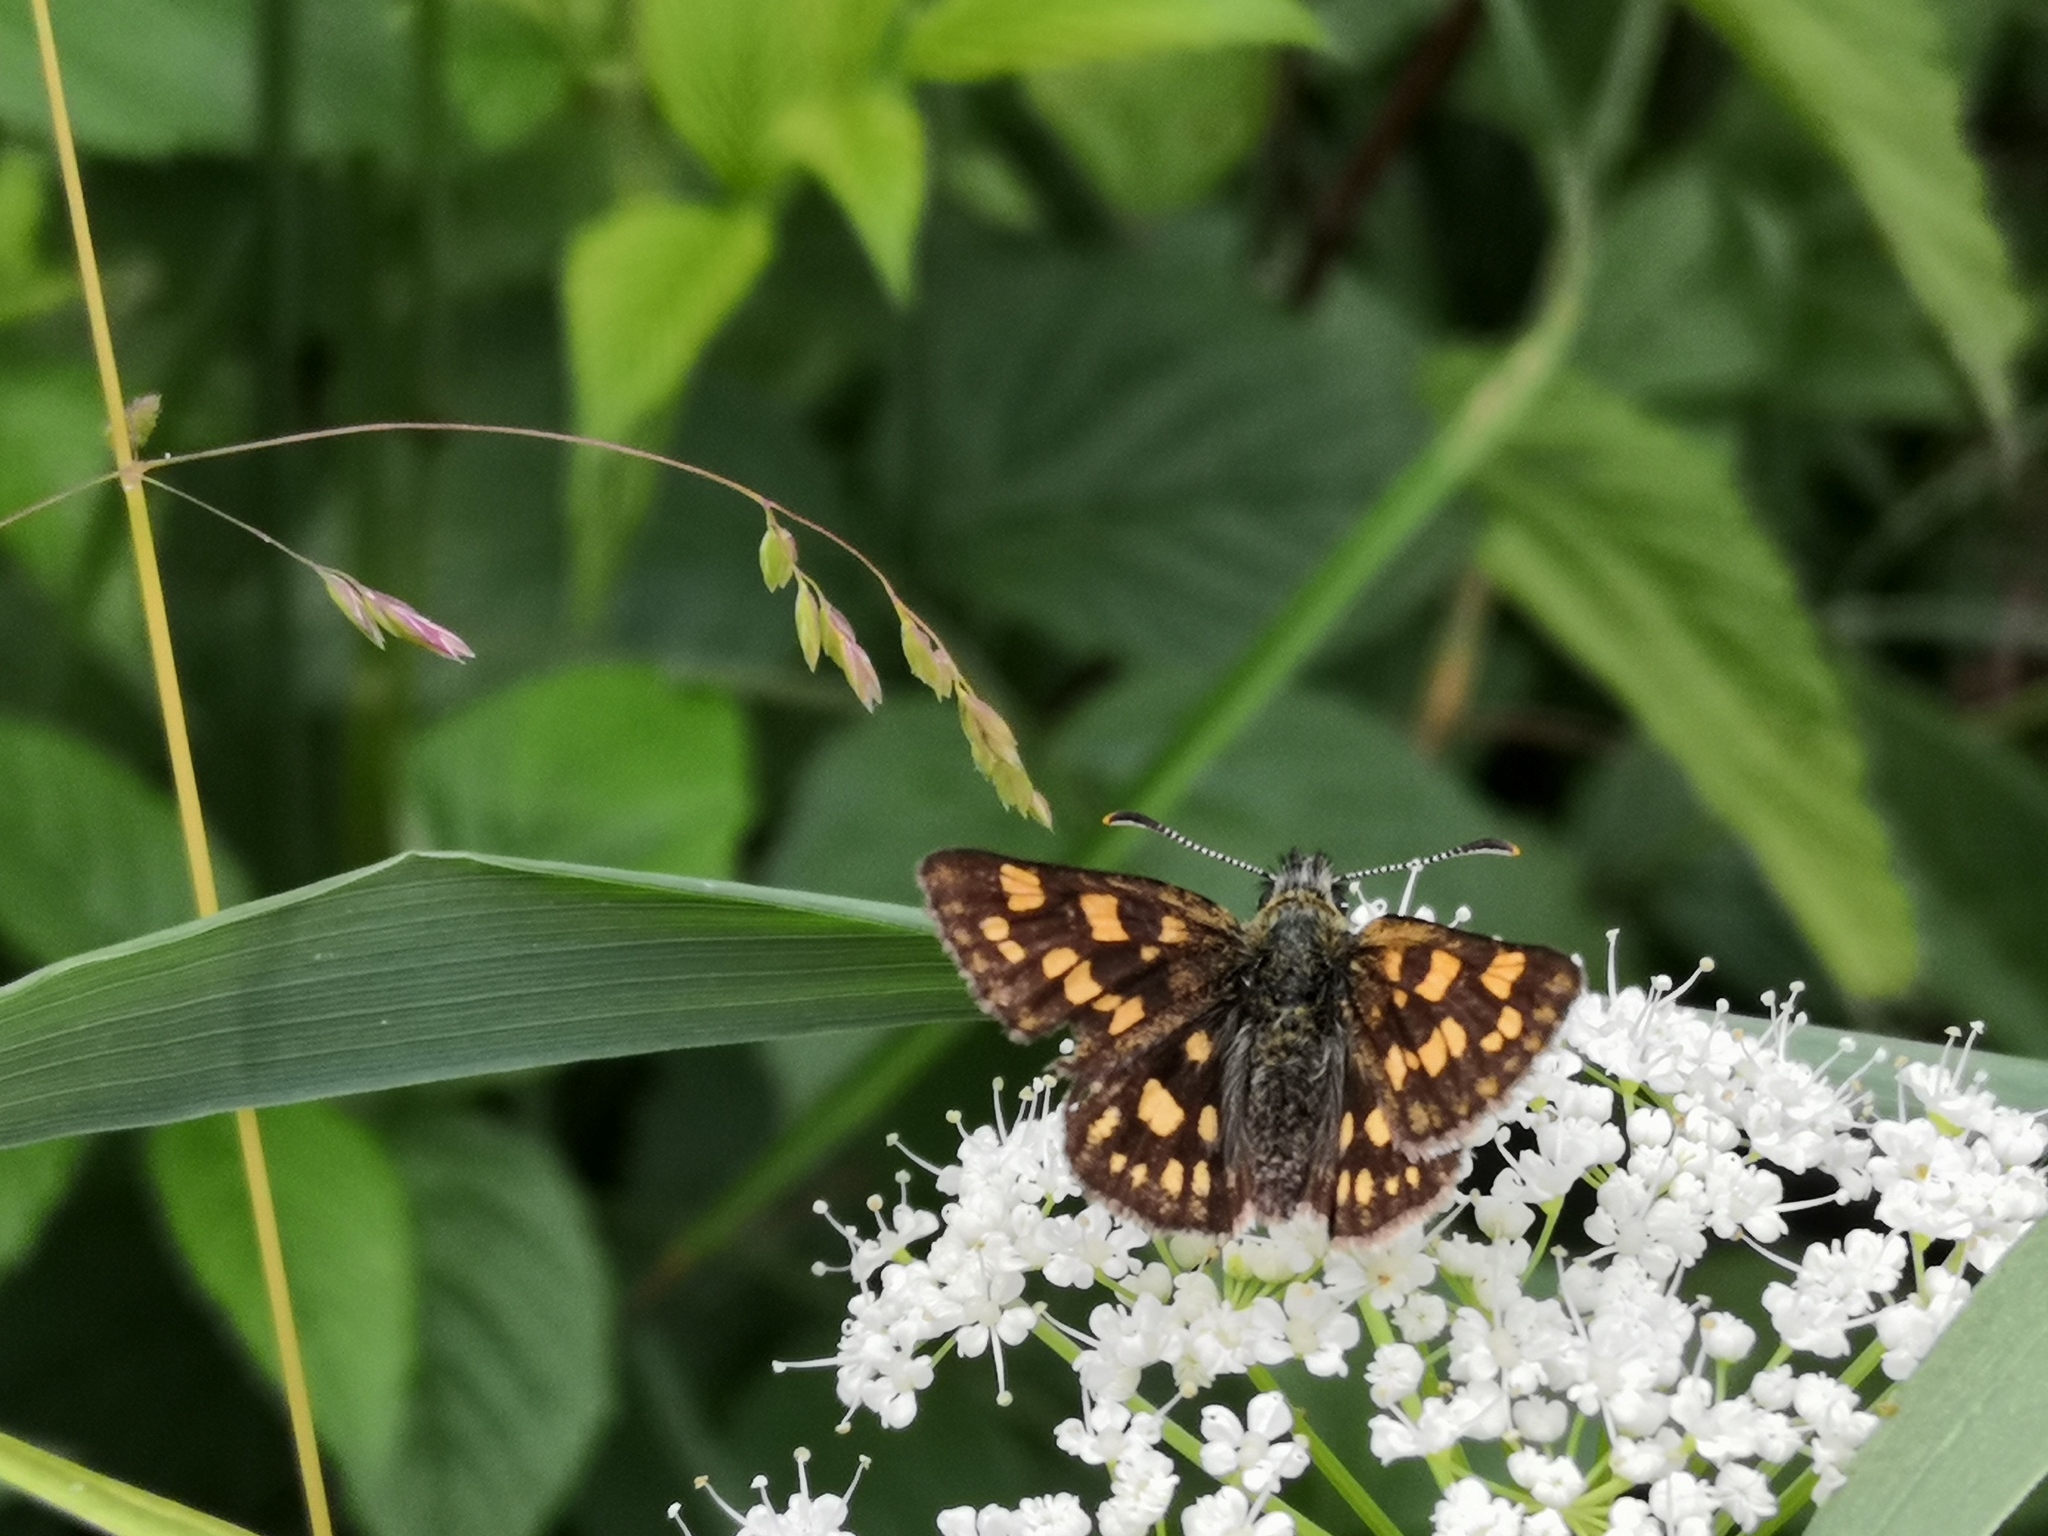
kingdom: Animalia
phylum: Arthropoda
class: Insecta
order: Lepidoptera
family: Hesperiidae
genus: Carterocephalus
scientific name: Carterocephalus palaemon
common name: Chequered skipper
